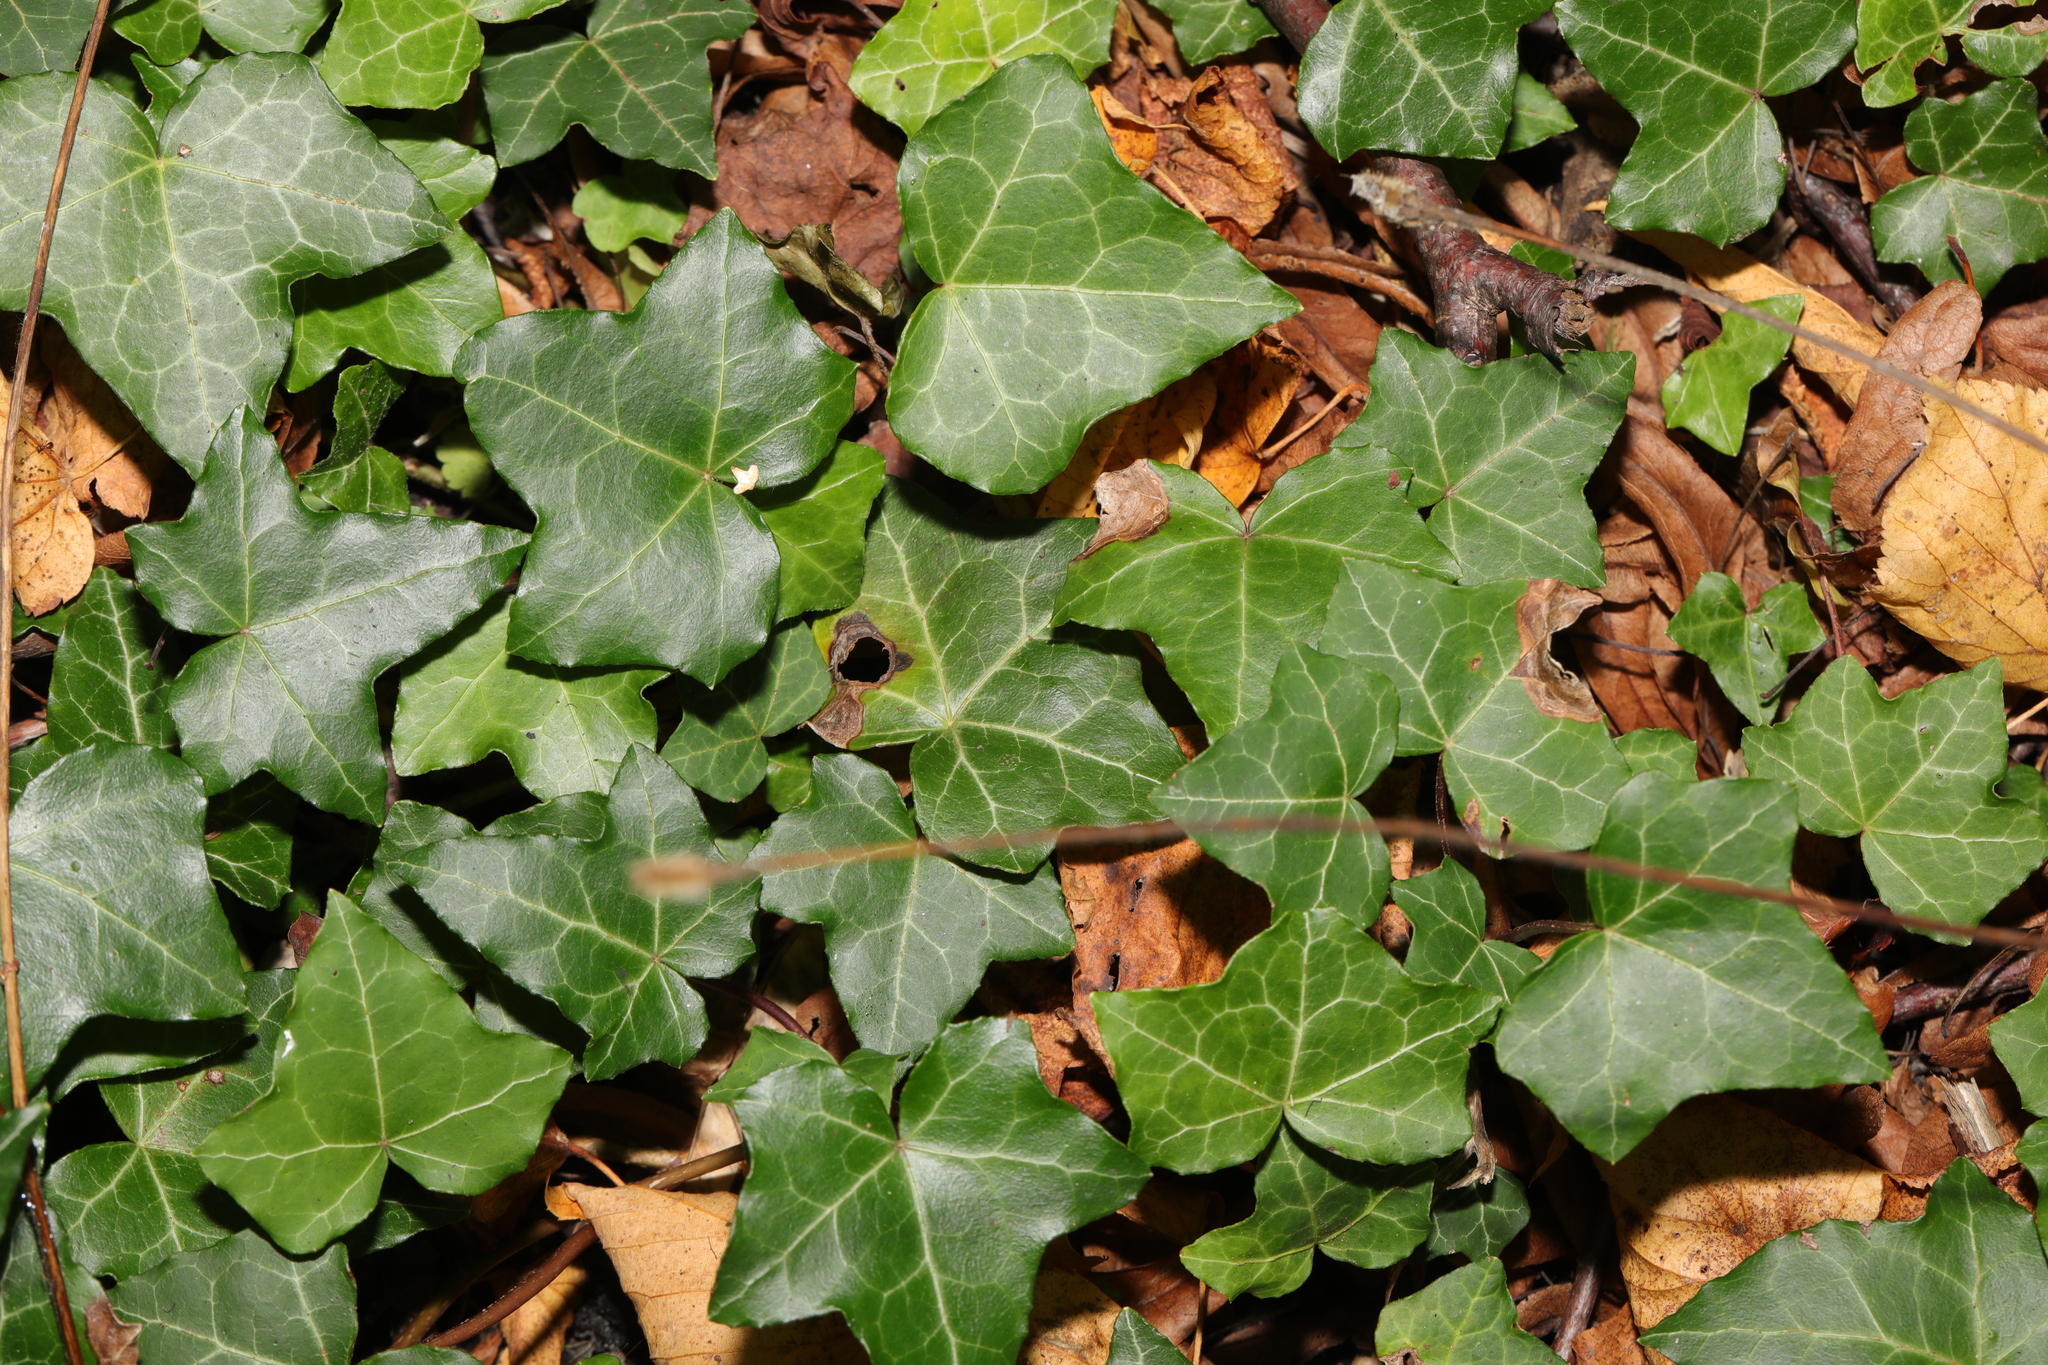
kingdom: Plantae
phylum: Tracheophyta
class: Magnoliopsida
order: Apiales
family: Araliaceae
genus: Hedera
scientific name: Hedera helix
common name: Ivy
